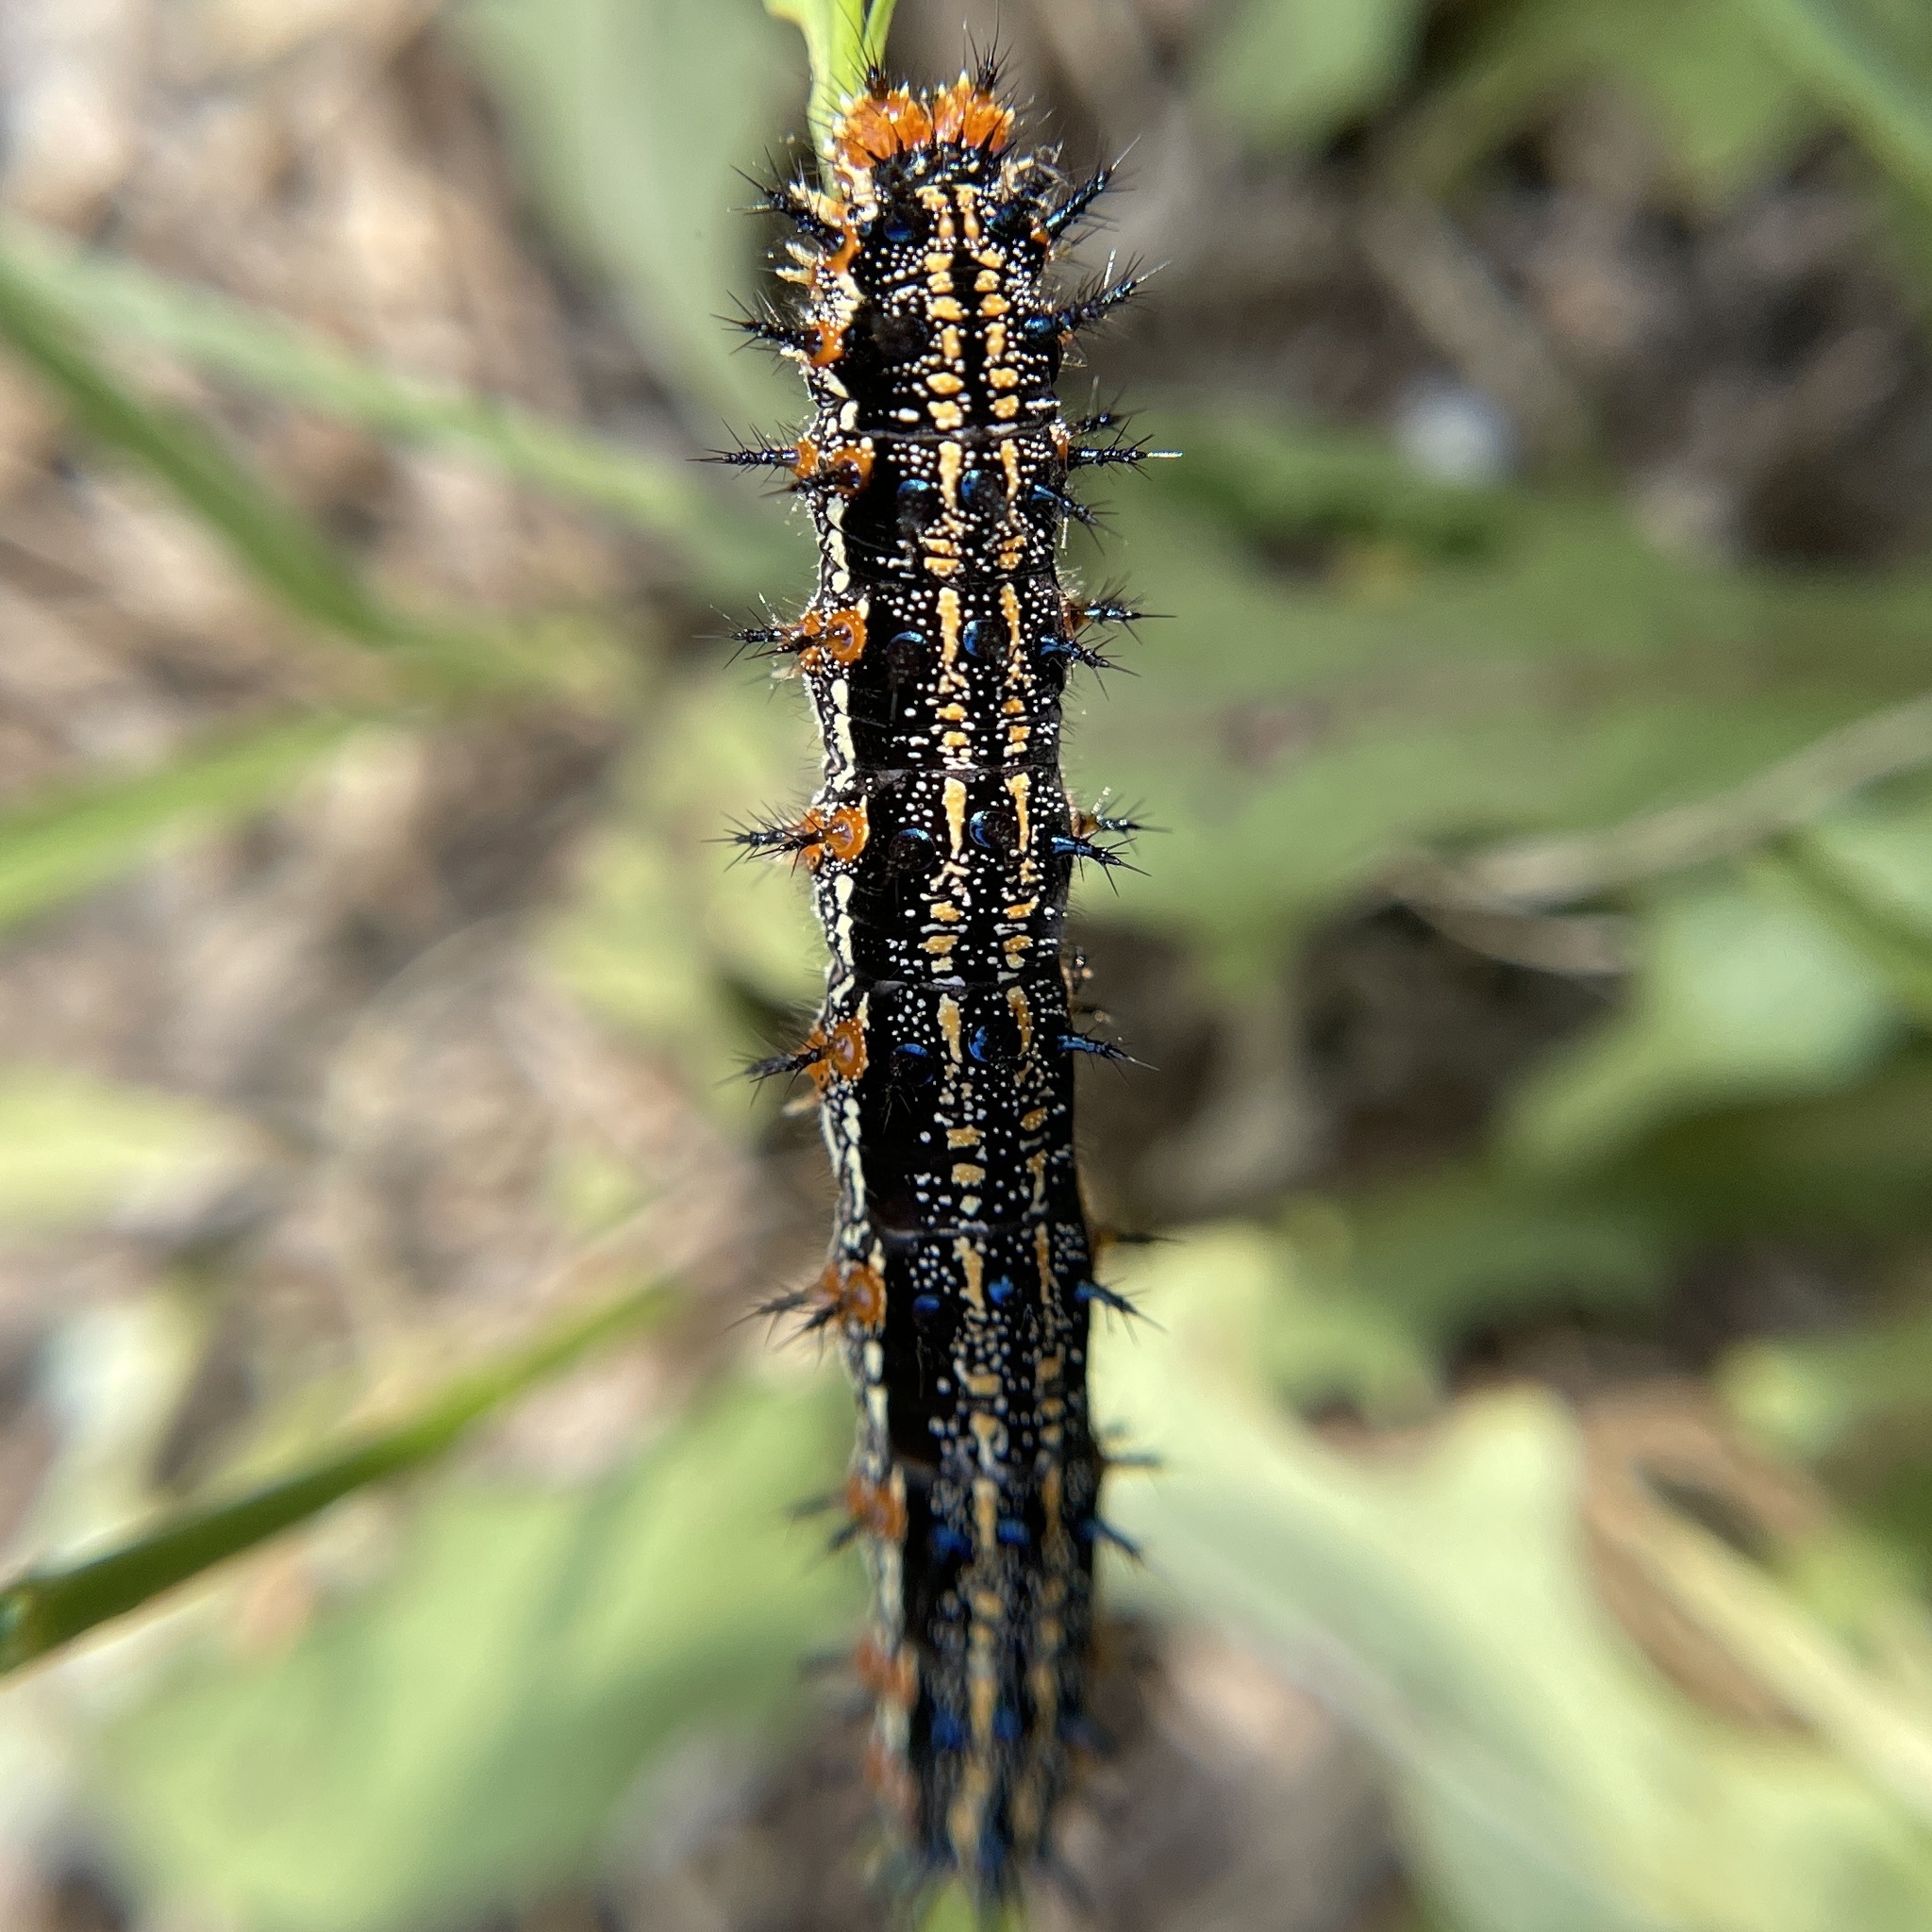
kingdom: Animalia
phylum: Arthropoda
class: Insecta
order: Lepidoptera
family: Nymphalidae
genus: Junonia
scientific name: Junonia coenia
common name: Common buckeye
